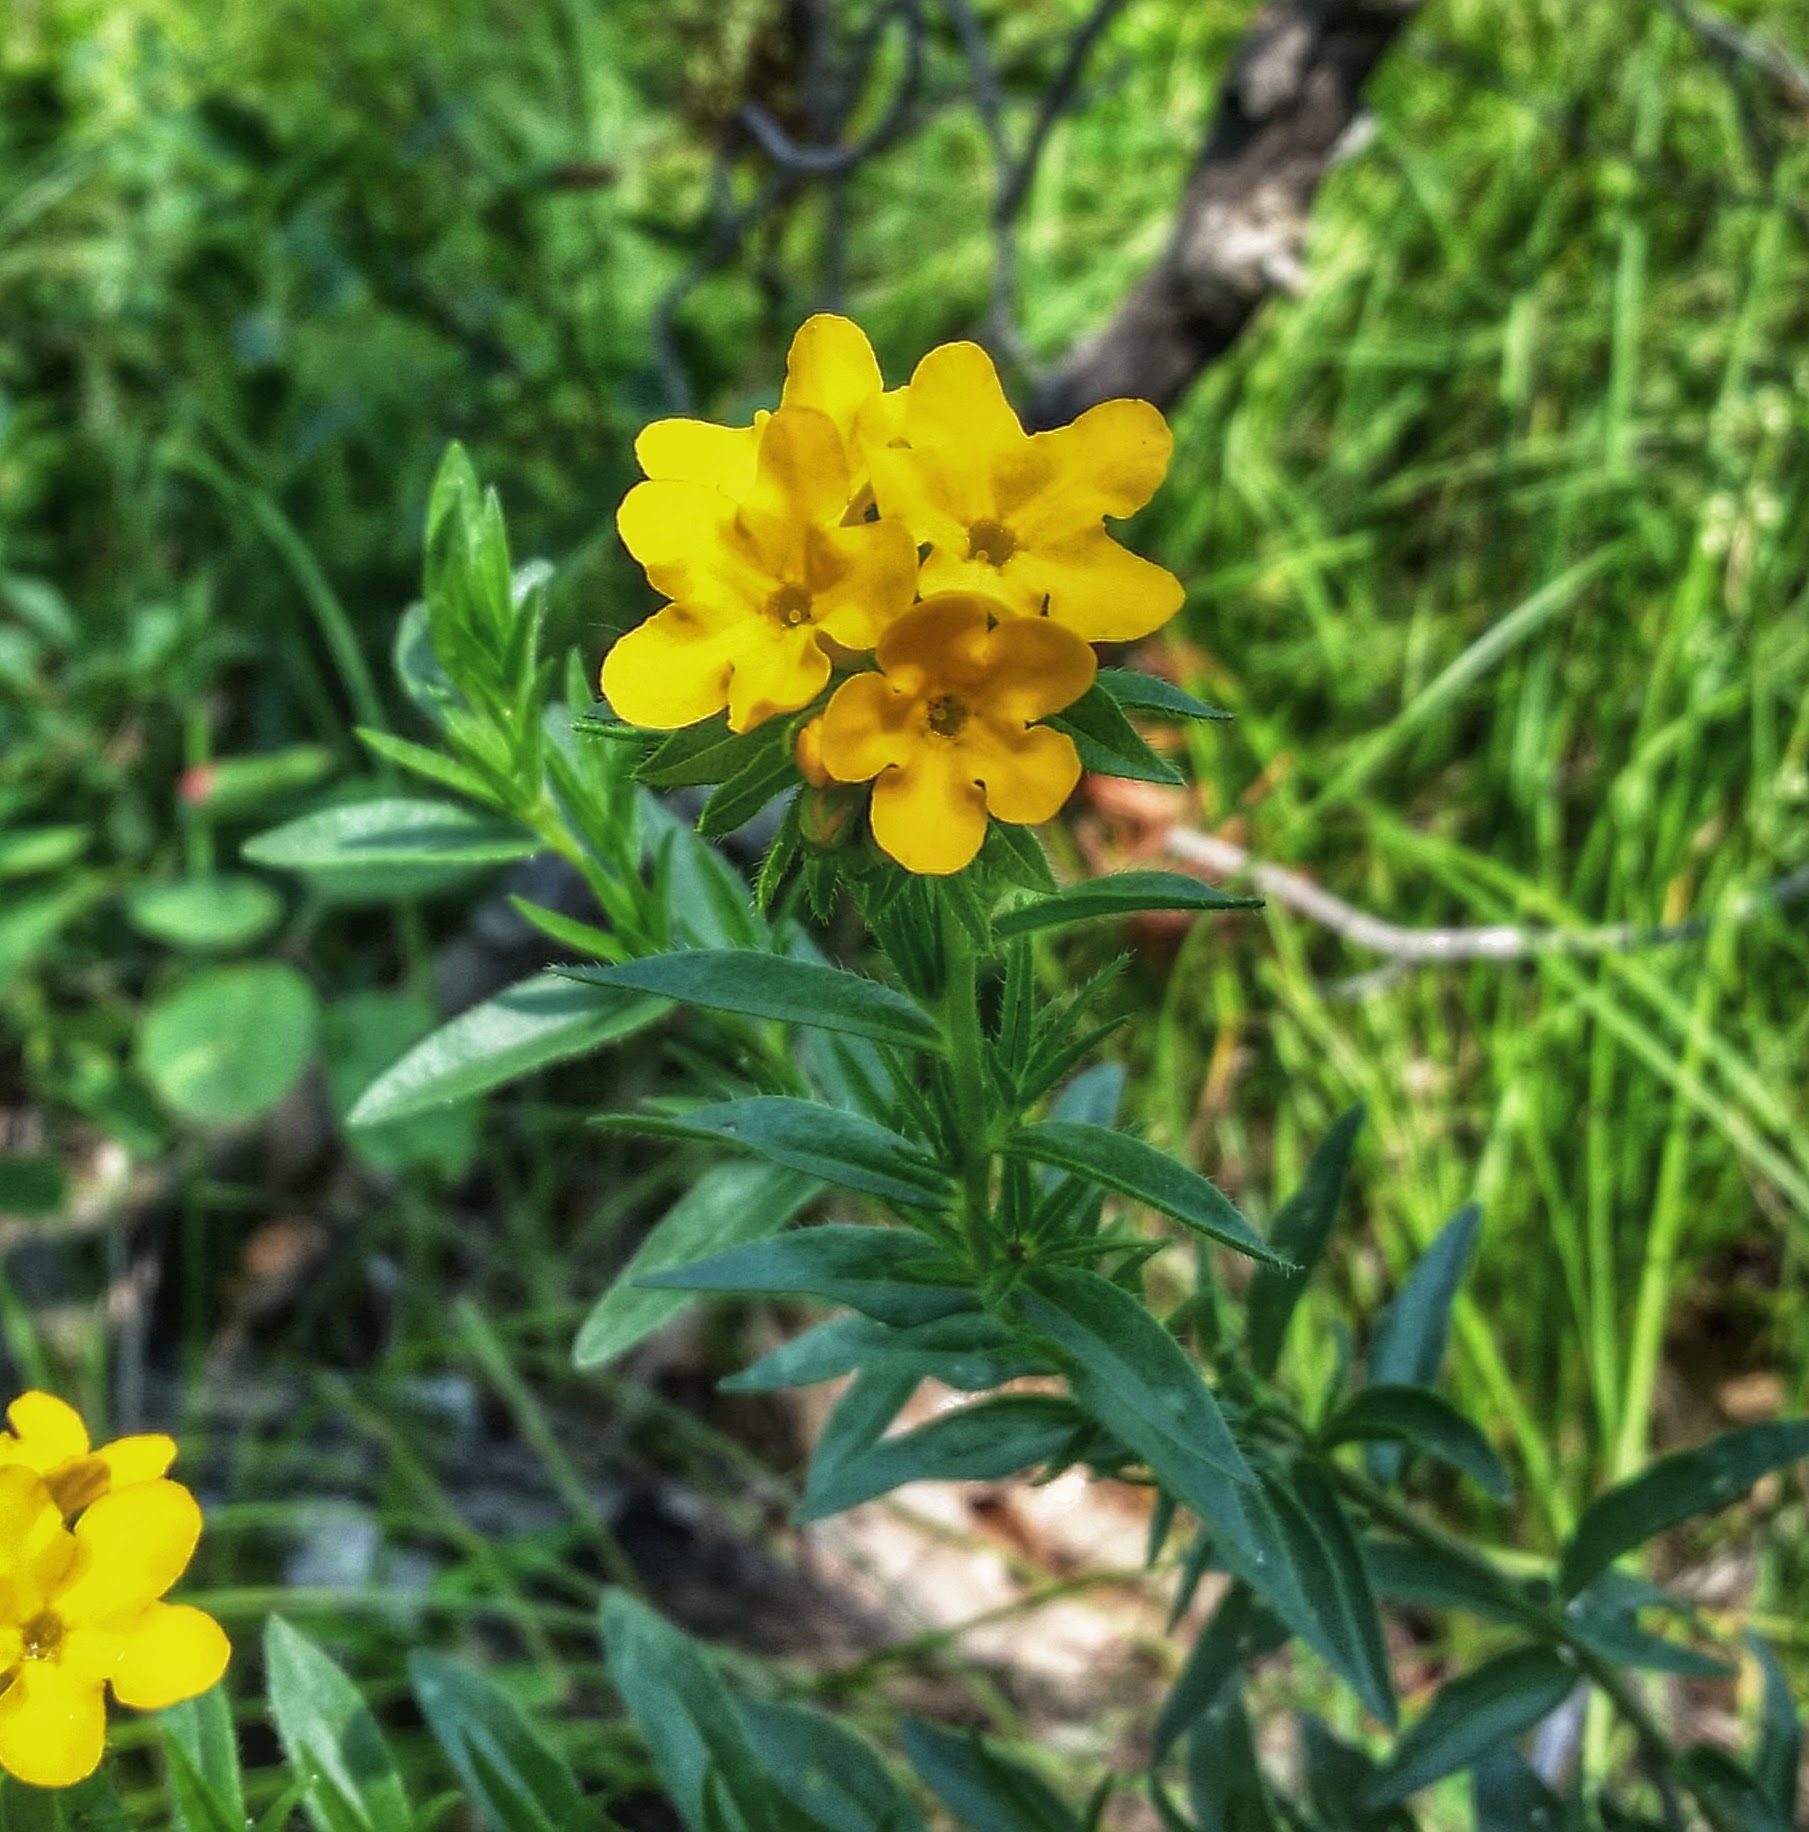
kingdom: Plantae
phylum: Tracheophyta
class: Magnoliopsida
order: Boraginales
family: Boraginaceae
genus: Lithospermum
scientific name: Lithospermum caroliniense
